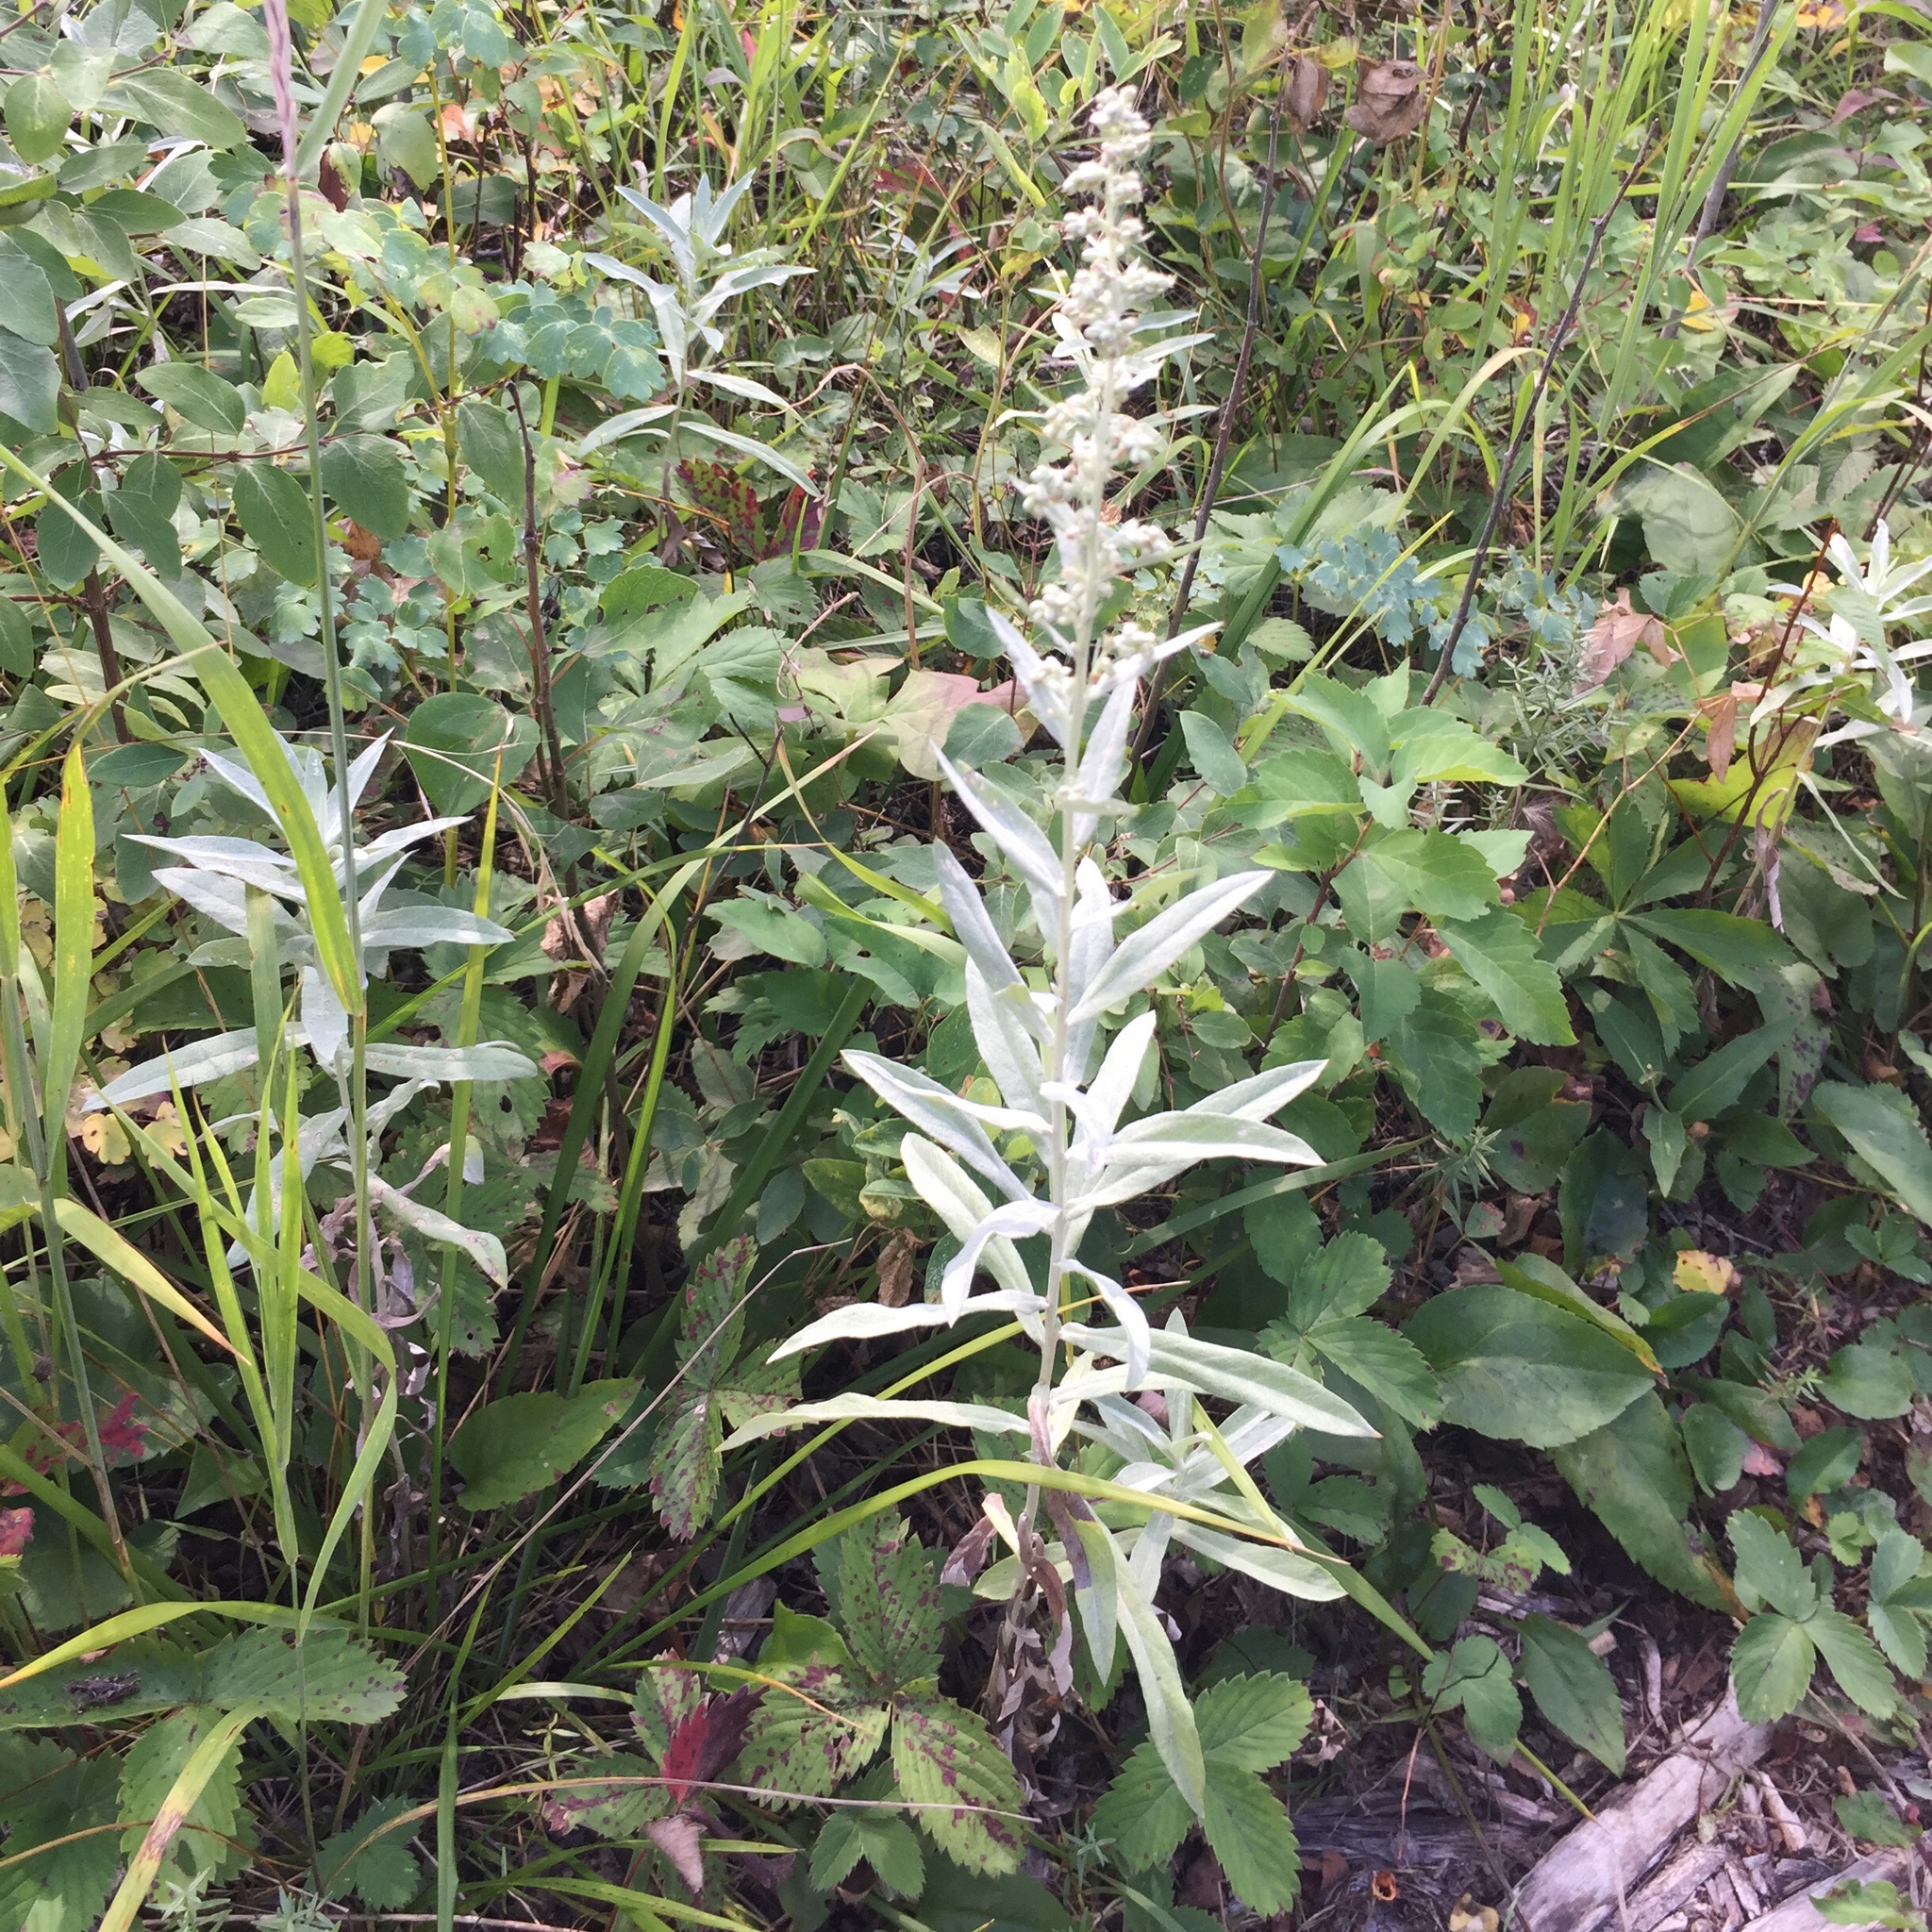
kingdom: Plantae
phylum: Tracheophyta
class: Magnoliopsida
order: Asterales
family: Asteraceae
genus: Artemisia
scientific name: Artemisia ludoviciana
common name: Western mugwort
